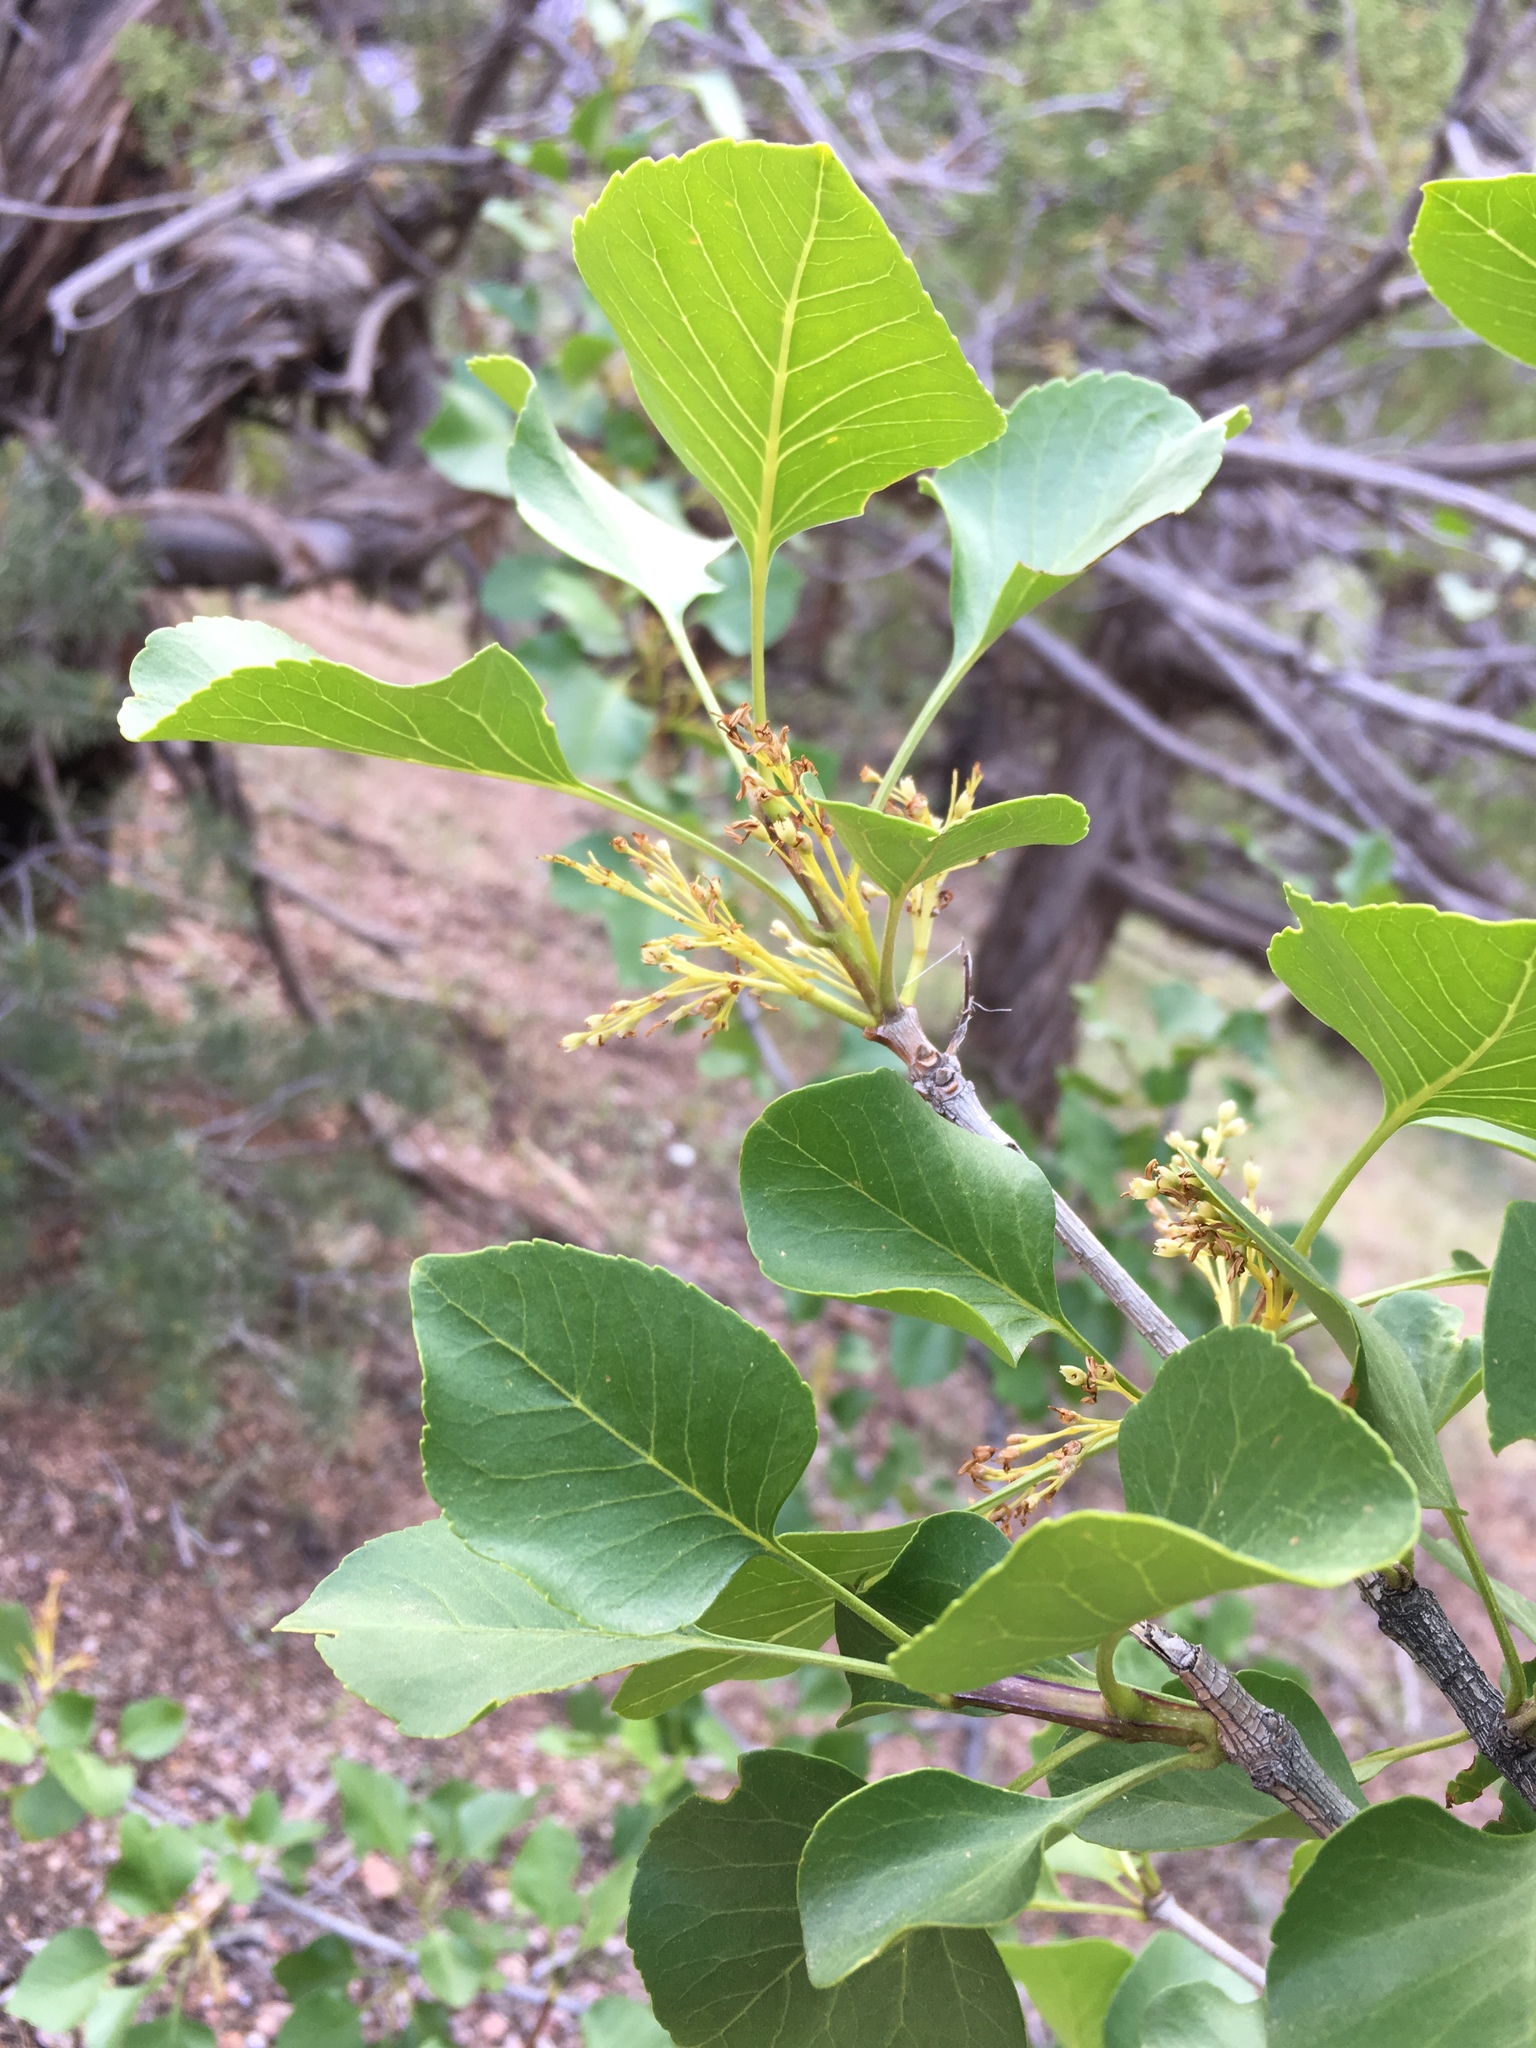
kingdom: Plantae
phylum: Tracheophyta
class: Magnoliopsida
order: Lamiales
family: Oleaceae
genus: Fraxinus
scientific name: Fraxinus anomala
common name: Utah ash
